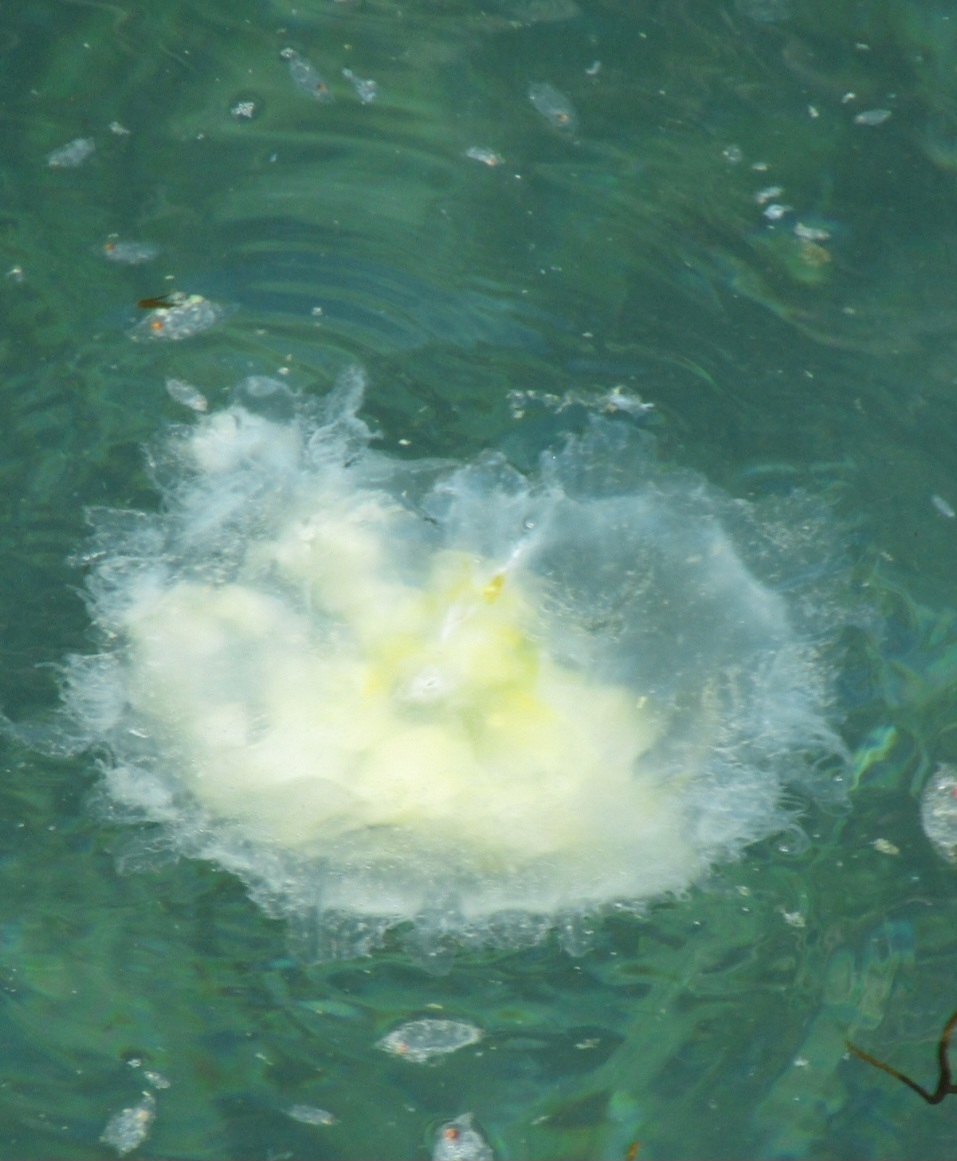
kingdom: Animalia
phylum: Cnidaria
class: Scyphozoa
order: Semaeostomeae
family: Phacellophoridae
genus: Phacellophora
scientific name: Phacellophora camtschatica
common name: Fried-egg jellyfish
